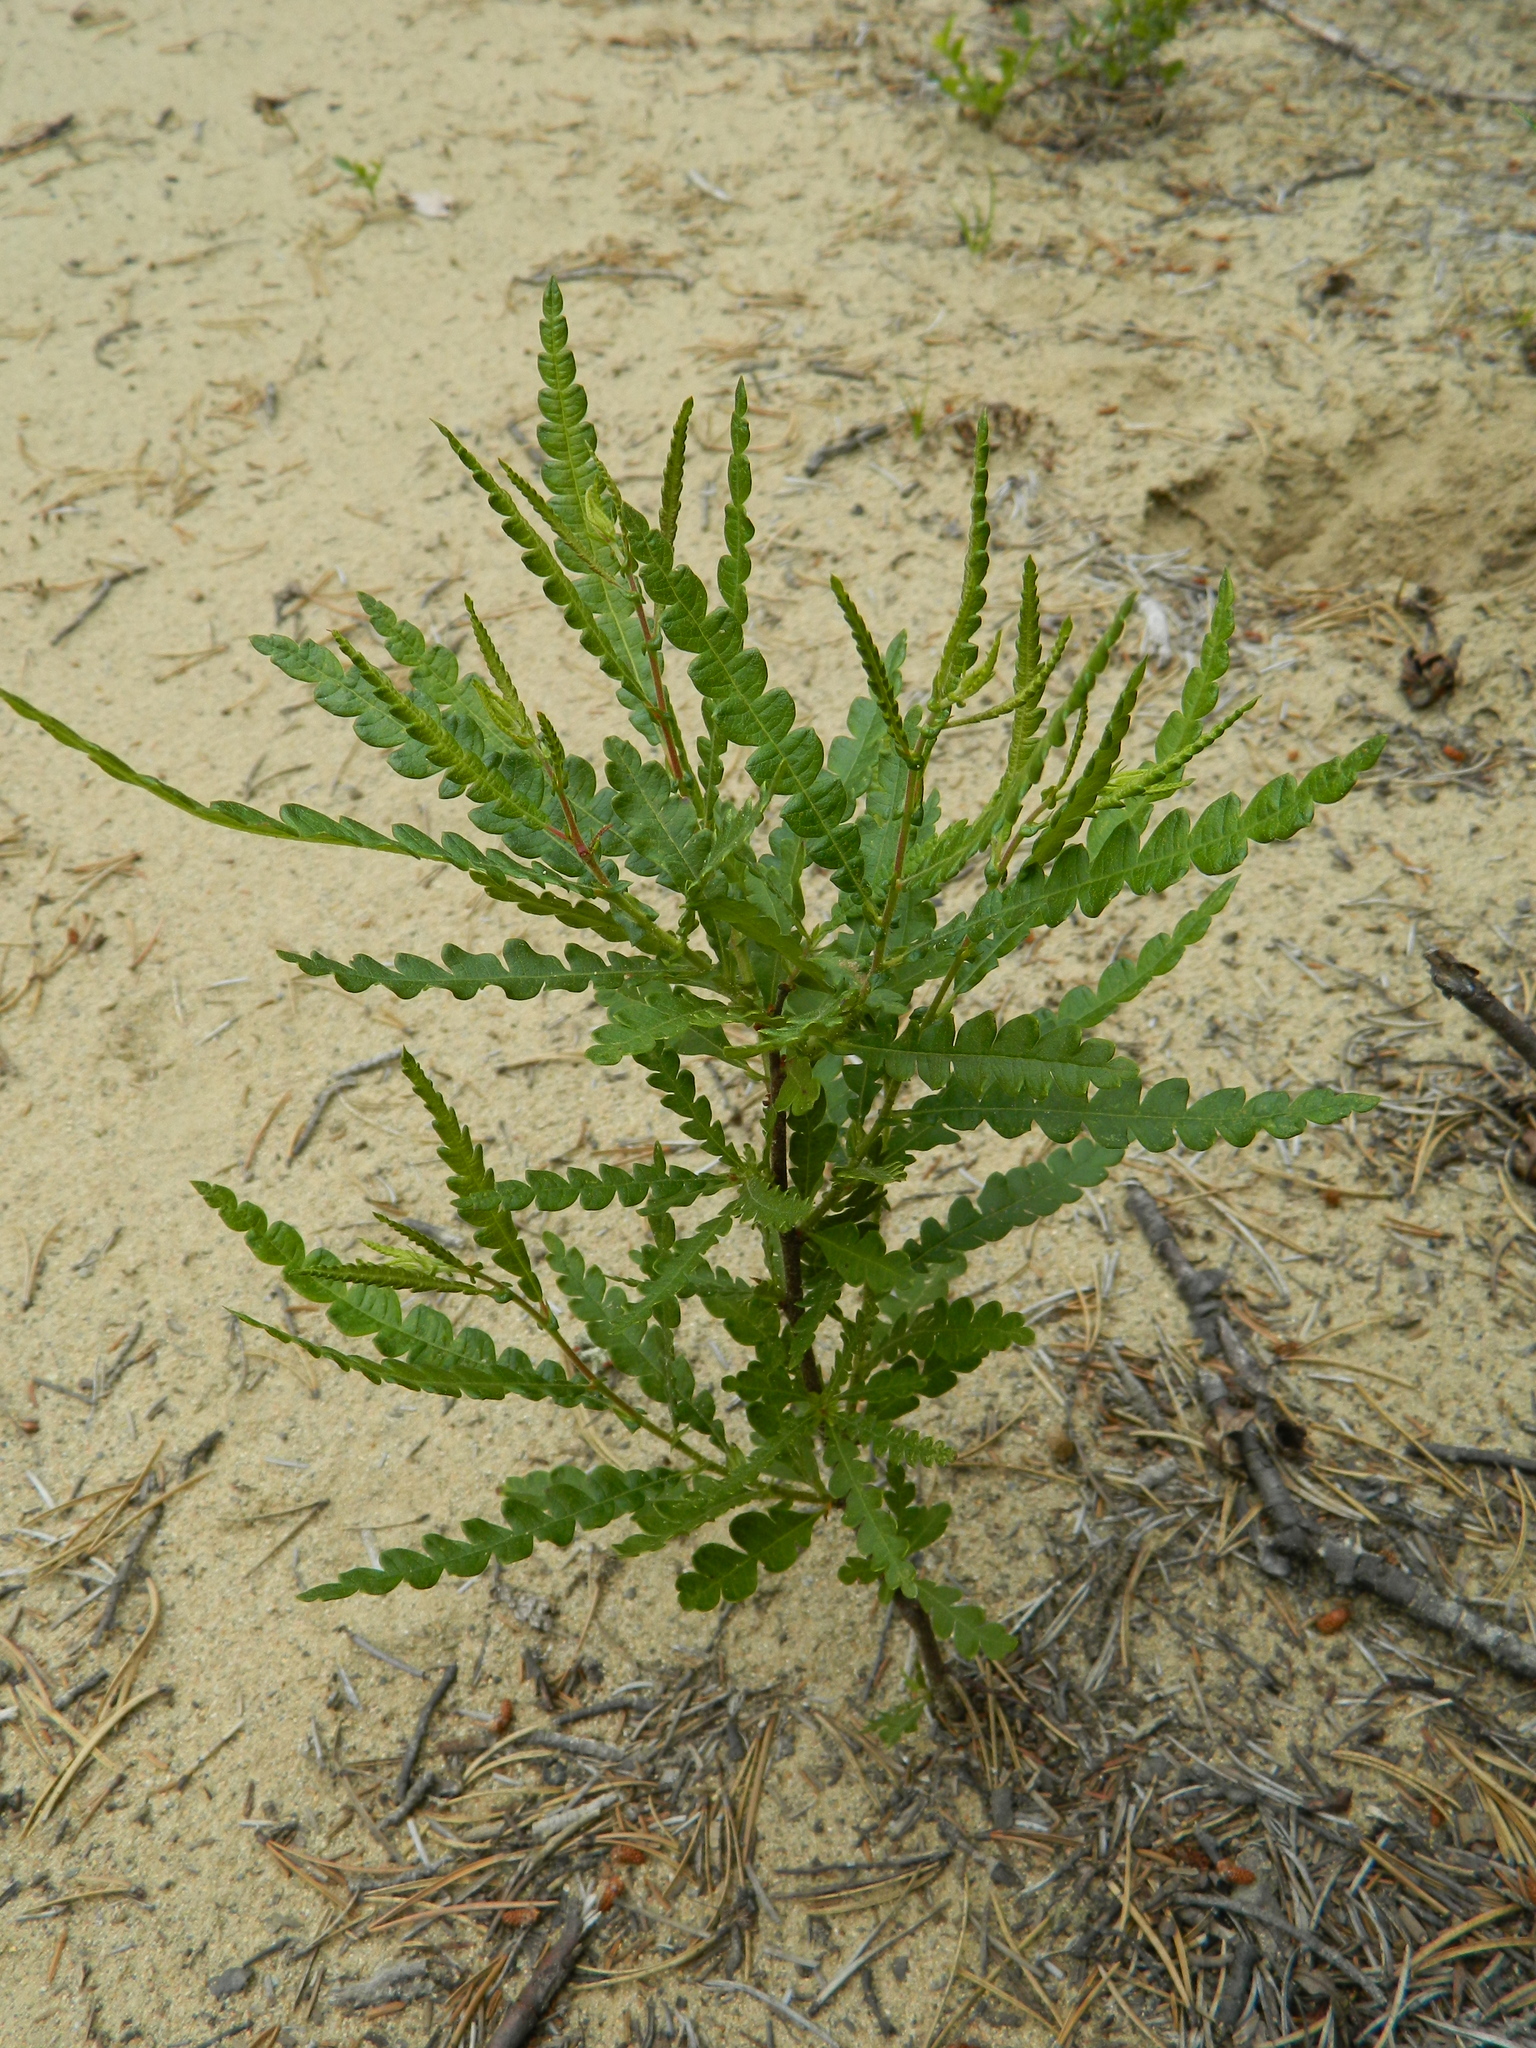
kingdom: Plantae
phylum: Tracheophyta
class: Magnoliopsida
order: Fagales
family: Myricaceae
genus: Comptonia
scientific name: Comptonia peregrina
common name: Sweet-fern
